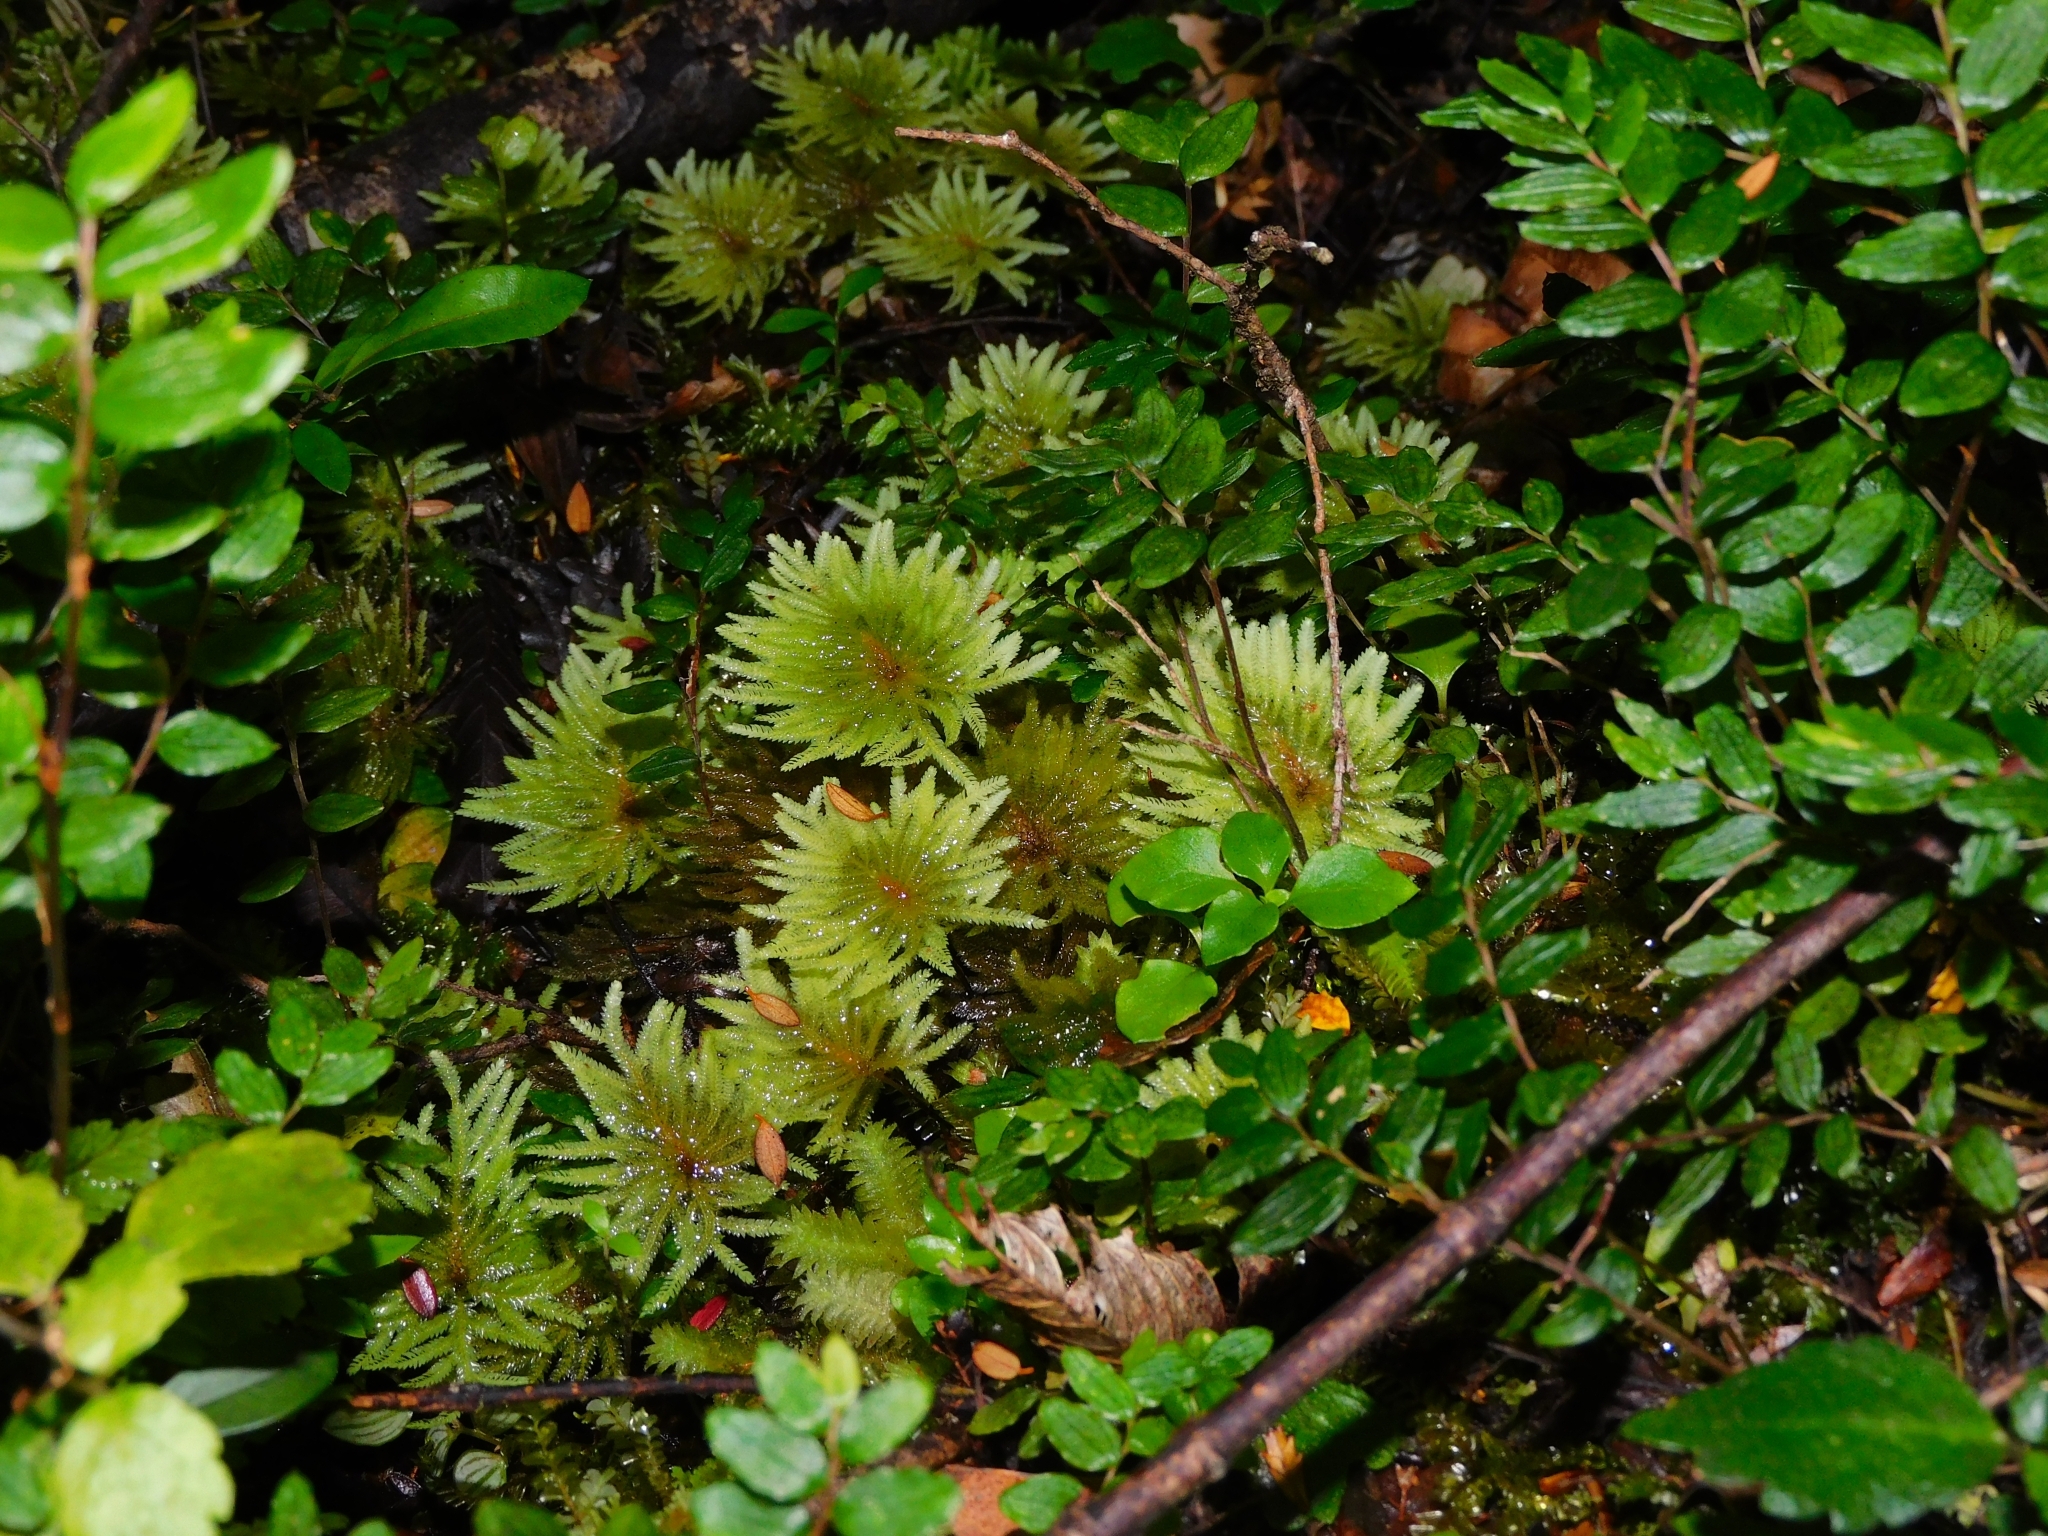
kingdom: Plantae
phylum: Bryophyta
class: Bryopsida
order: Hypopterygiales
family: Hypopterygiaceae
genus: Arbusculohypopterygium
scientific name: Arbusculohypopterygium arbuscula
